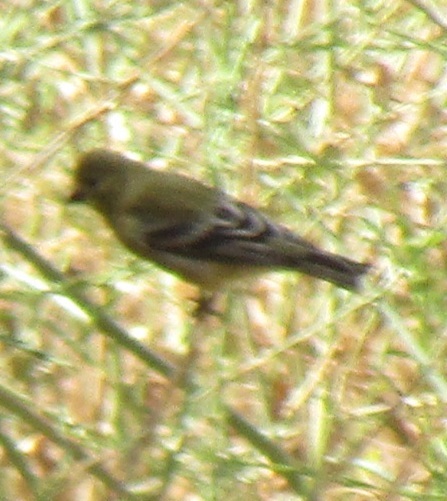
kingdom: Animalia
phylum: Chordata
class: Aves
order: Passeriformes
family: Fringillidae
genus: Spinus
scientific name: Spinus psaltria
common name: Lesser goldfinch
